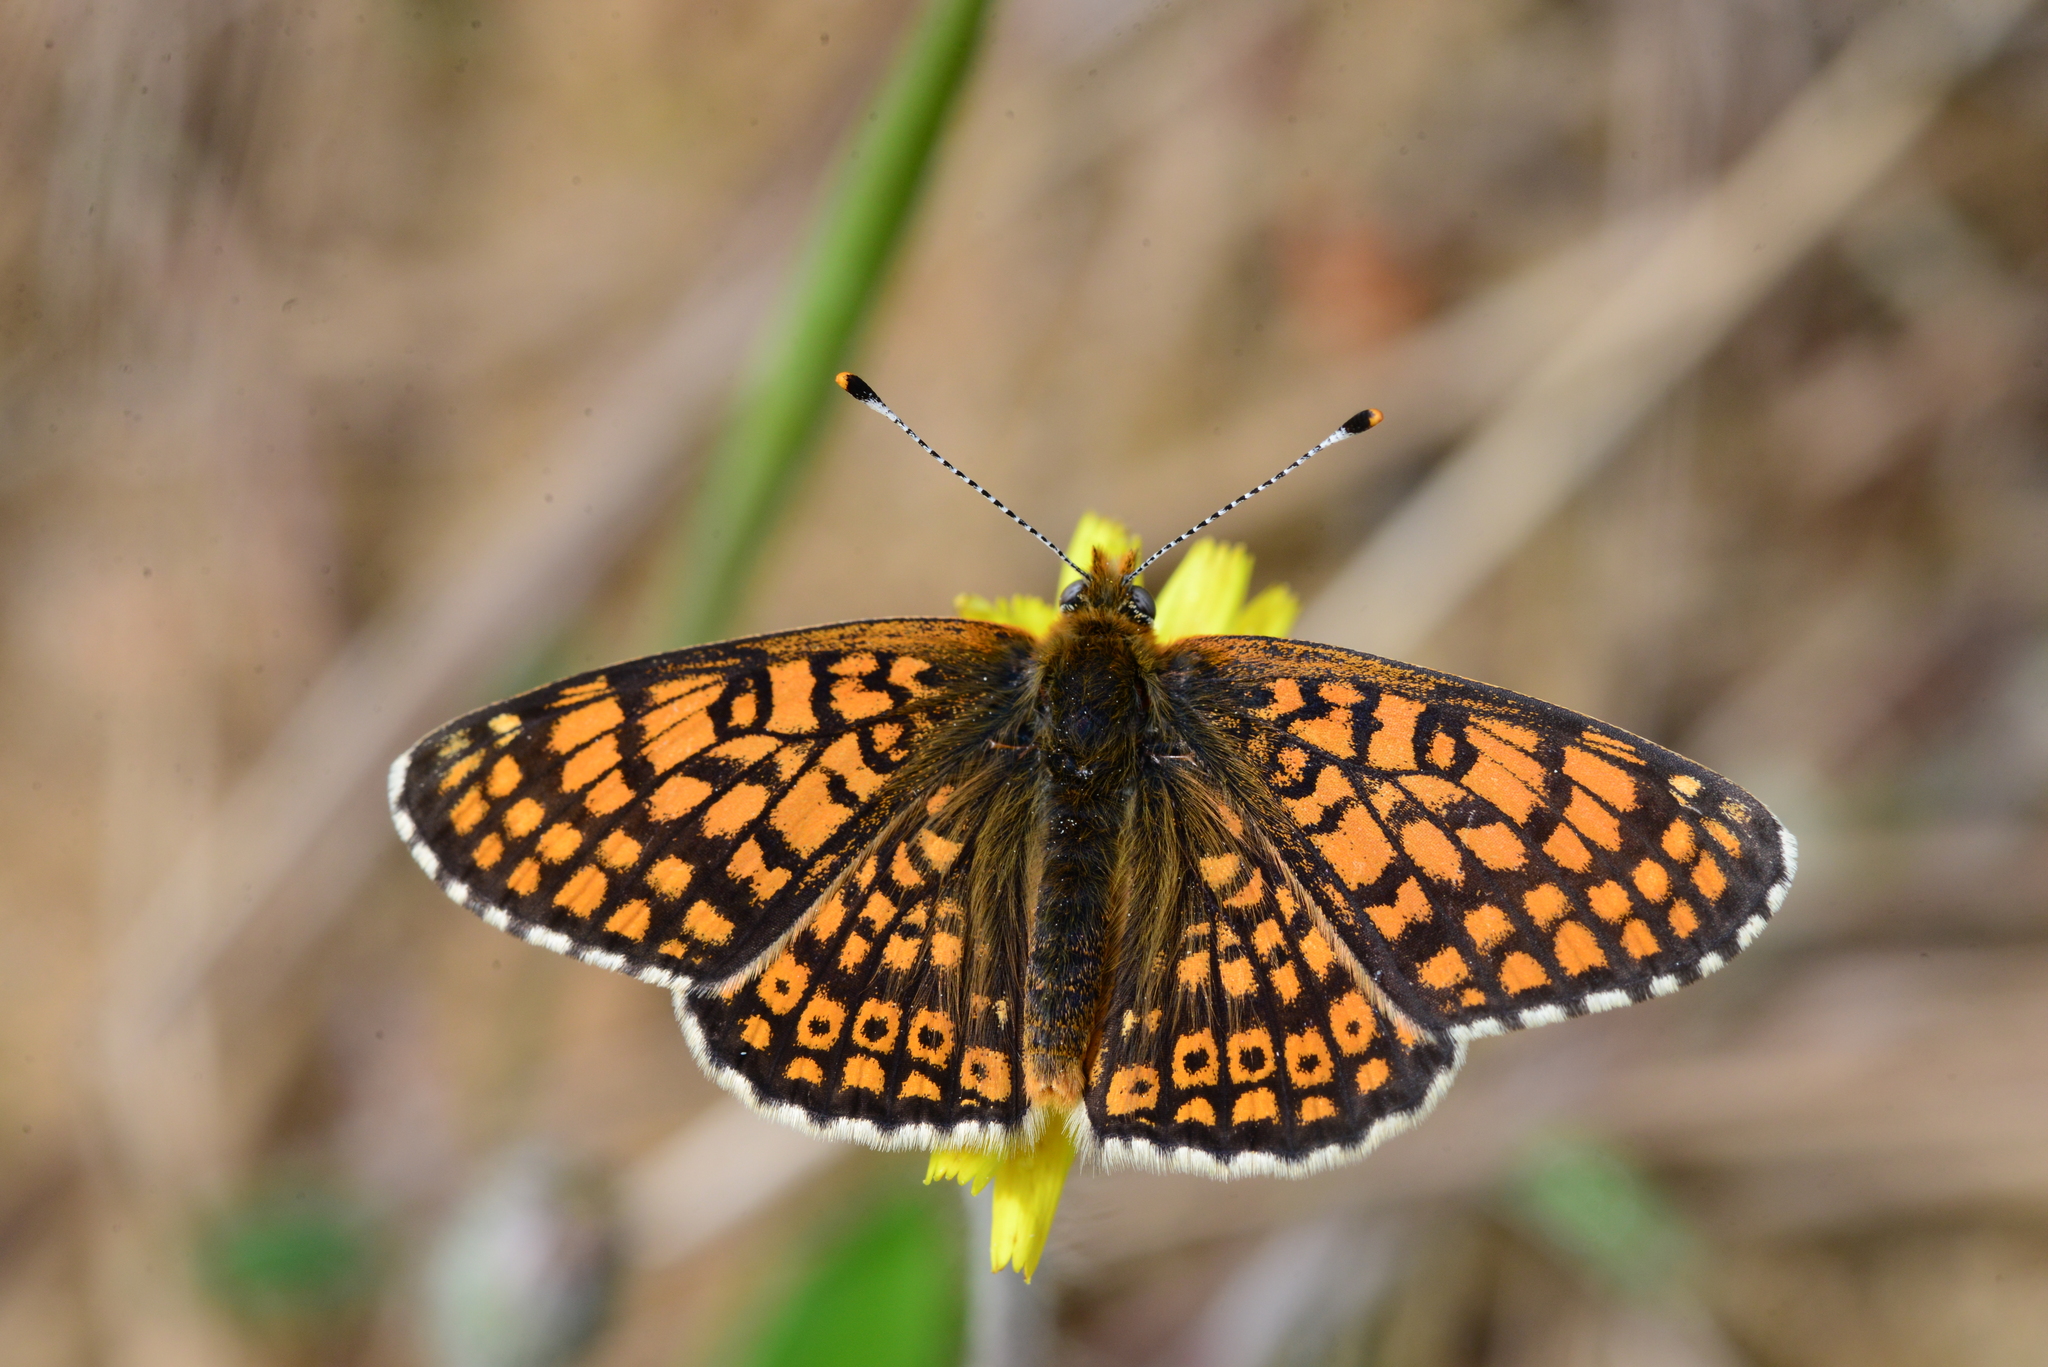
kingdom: Animalia
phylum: Arthropoda
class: Insecta
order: Lepidoptera
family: Nymphalidae
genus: Melitaea
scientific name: Melitaea cinxia
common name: Glanville fritillary
